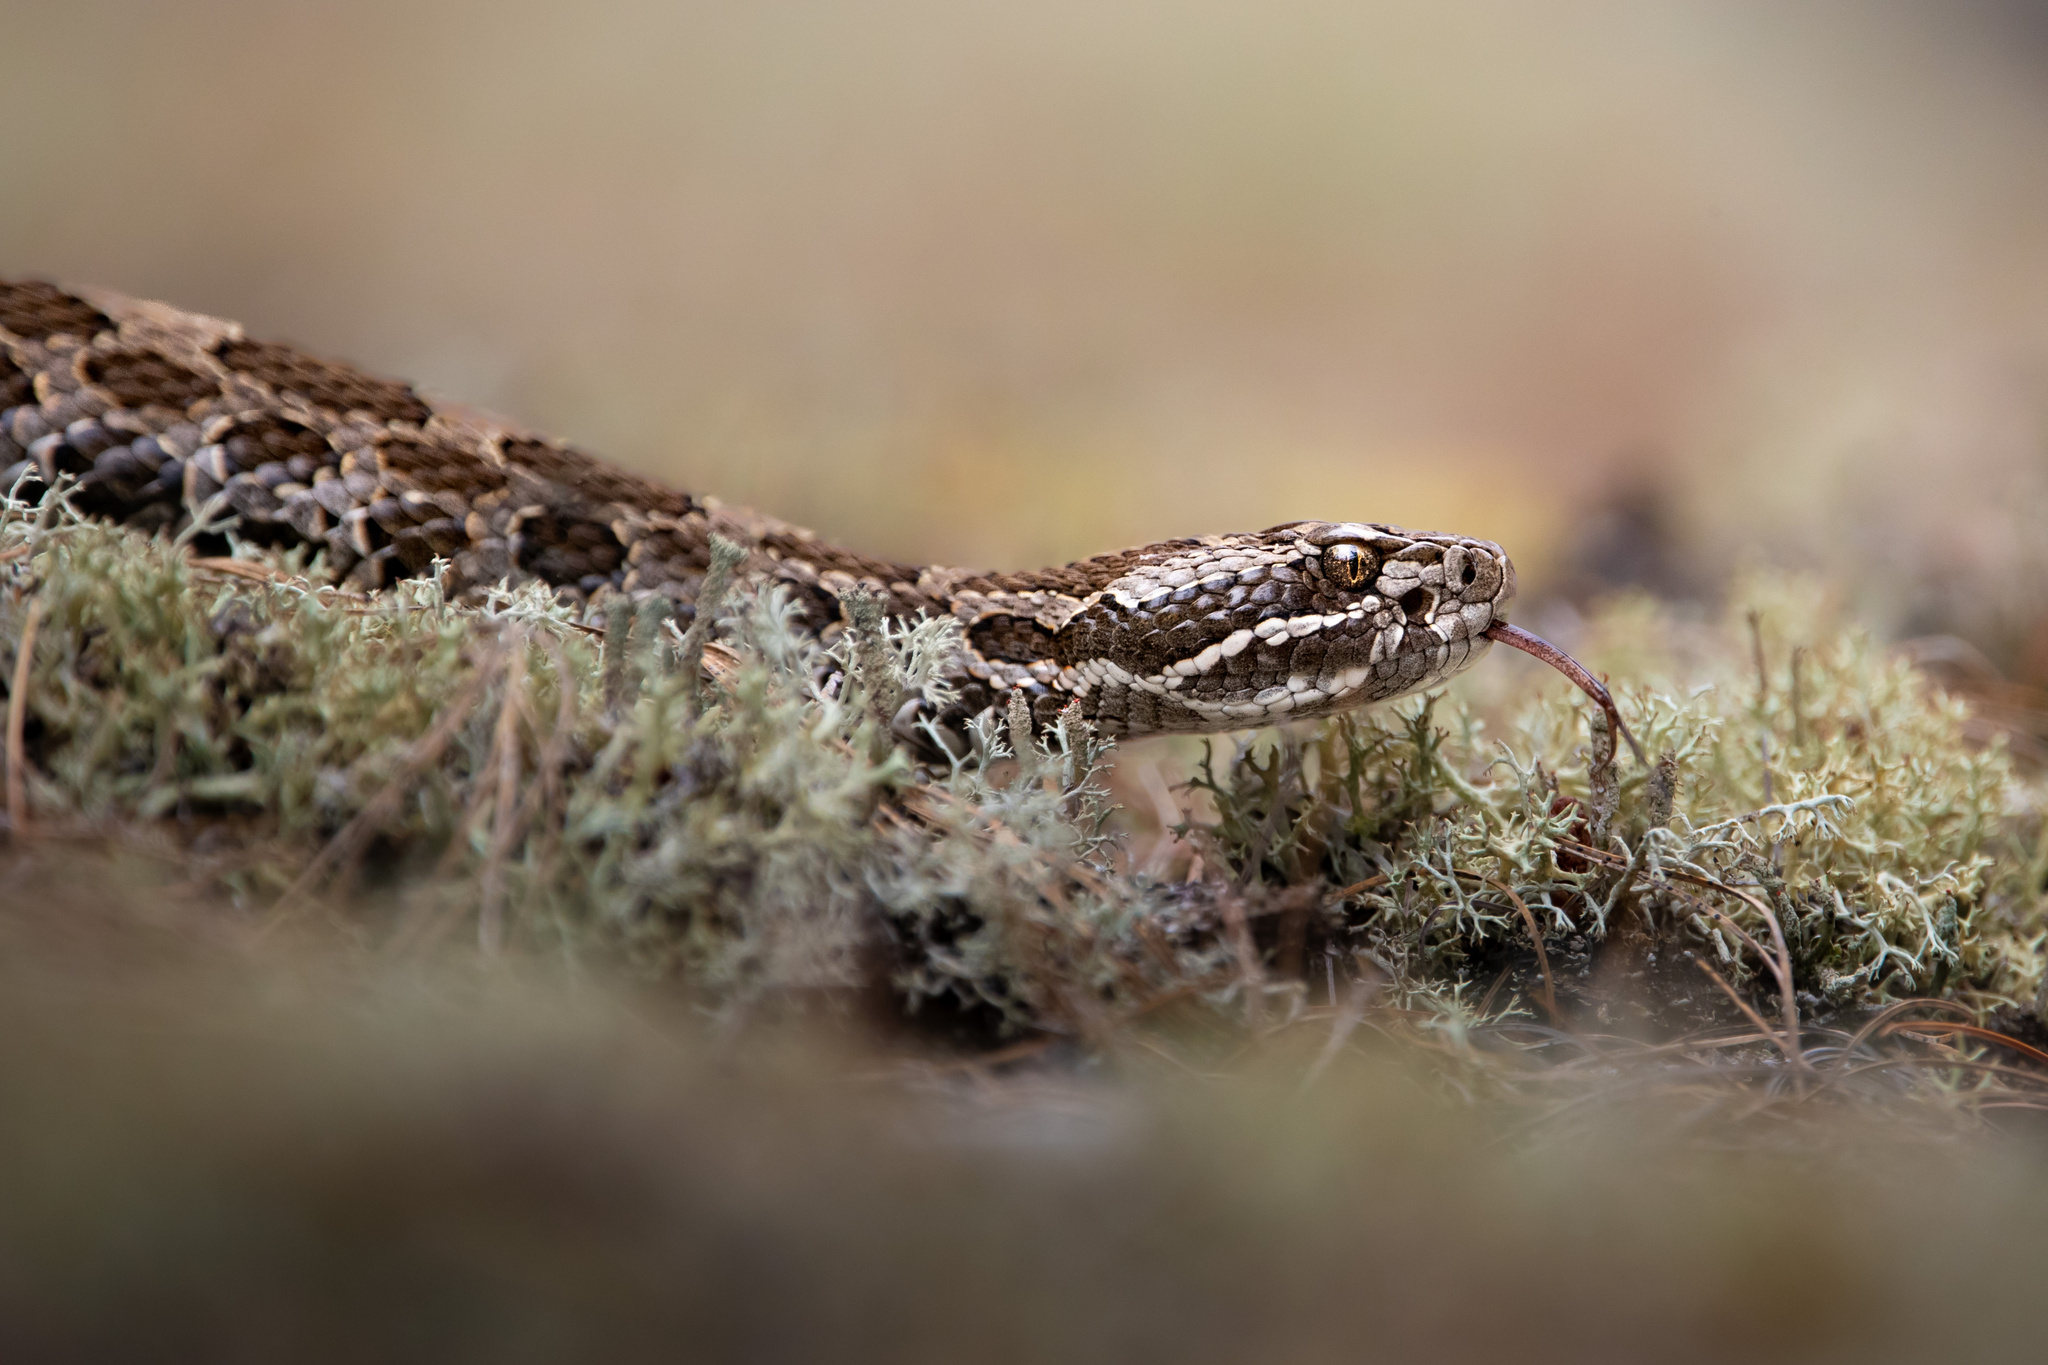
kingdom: Animalia
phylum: Chordata
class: Squamata
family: Viperidae
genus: Sistrurus
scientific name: Sistrurus catenatus
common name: Massasauga
